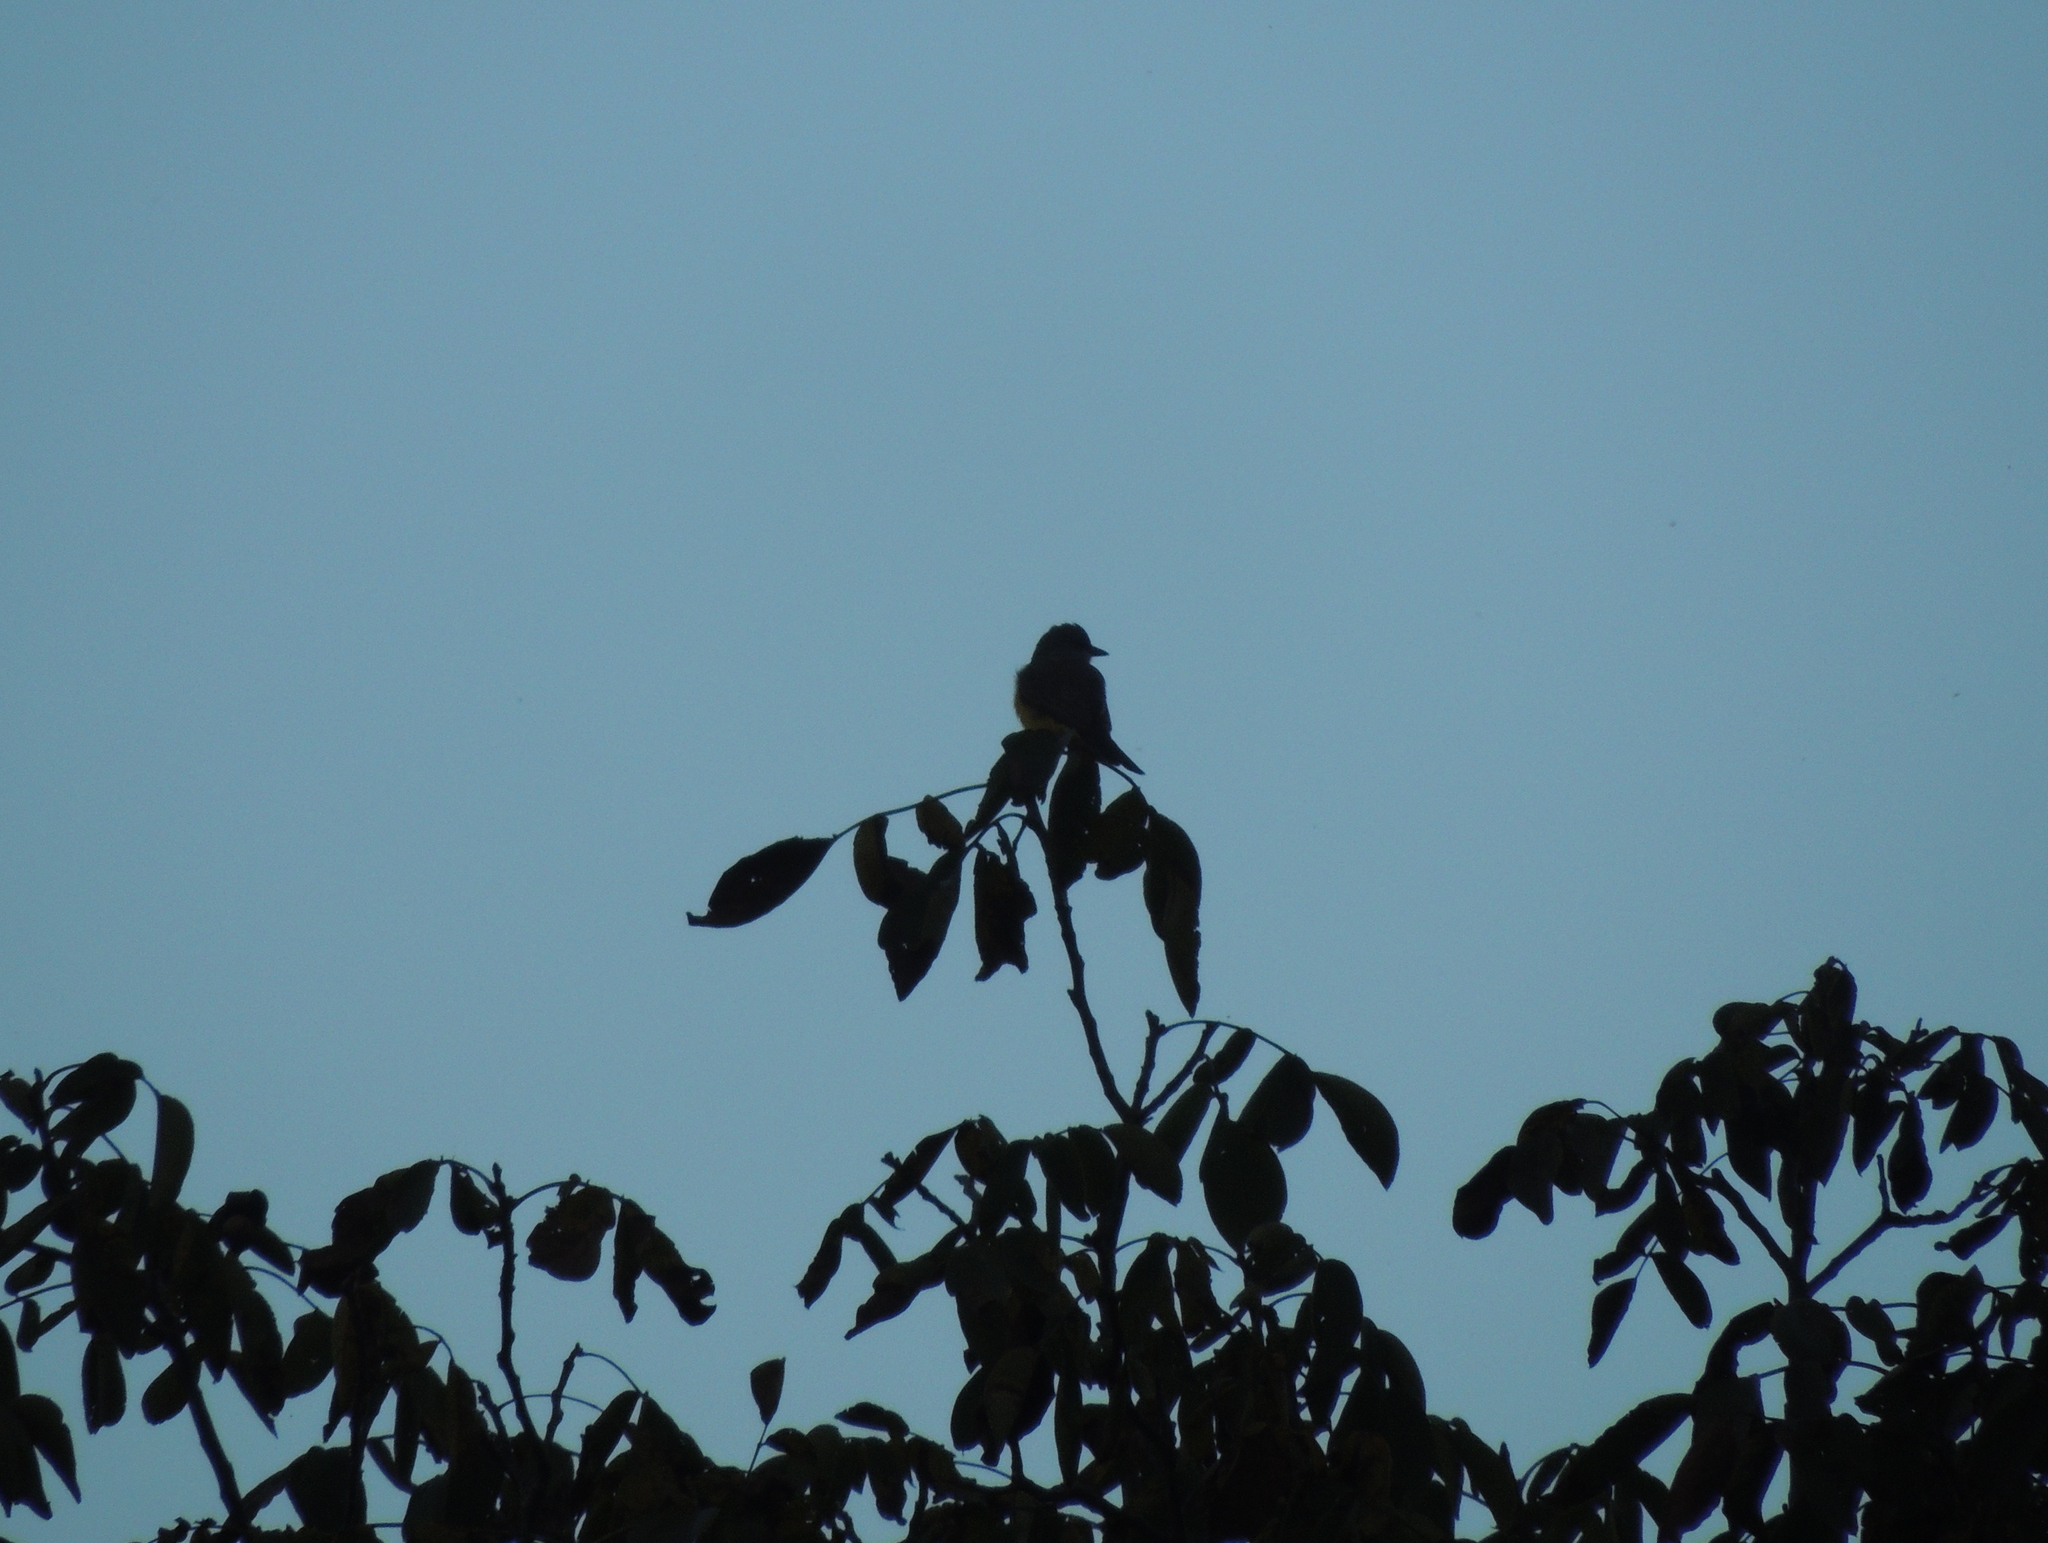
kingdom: Animalia
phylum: Chordata
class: Aves
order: Passeriformes
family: Tyrannidae
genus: Tyrannus
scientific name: Tyrannus melancholicus
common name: Tropical kingbird
